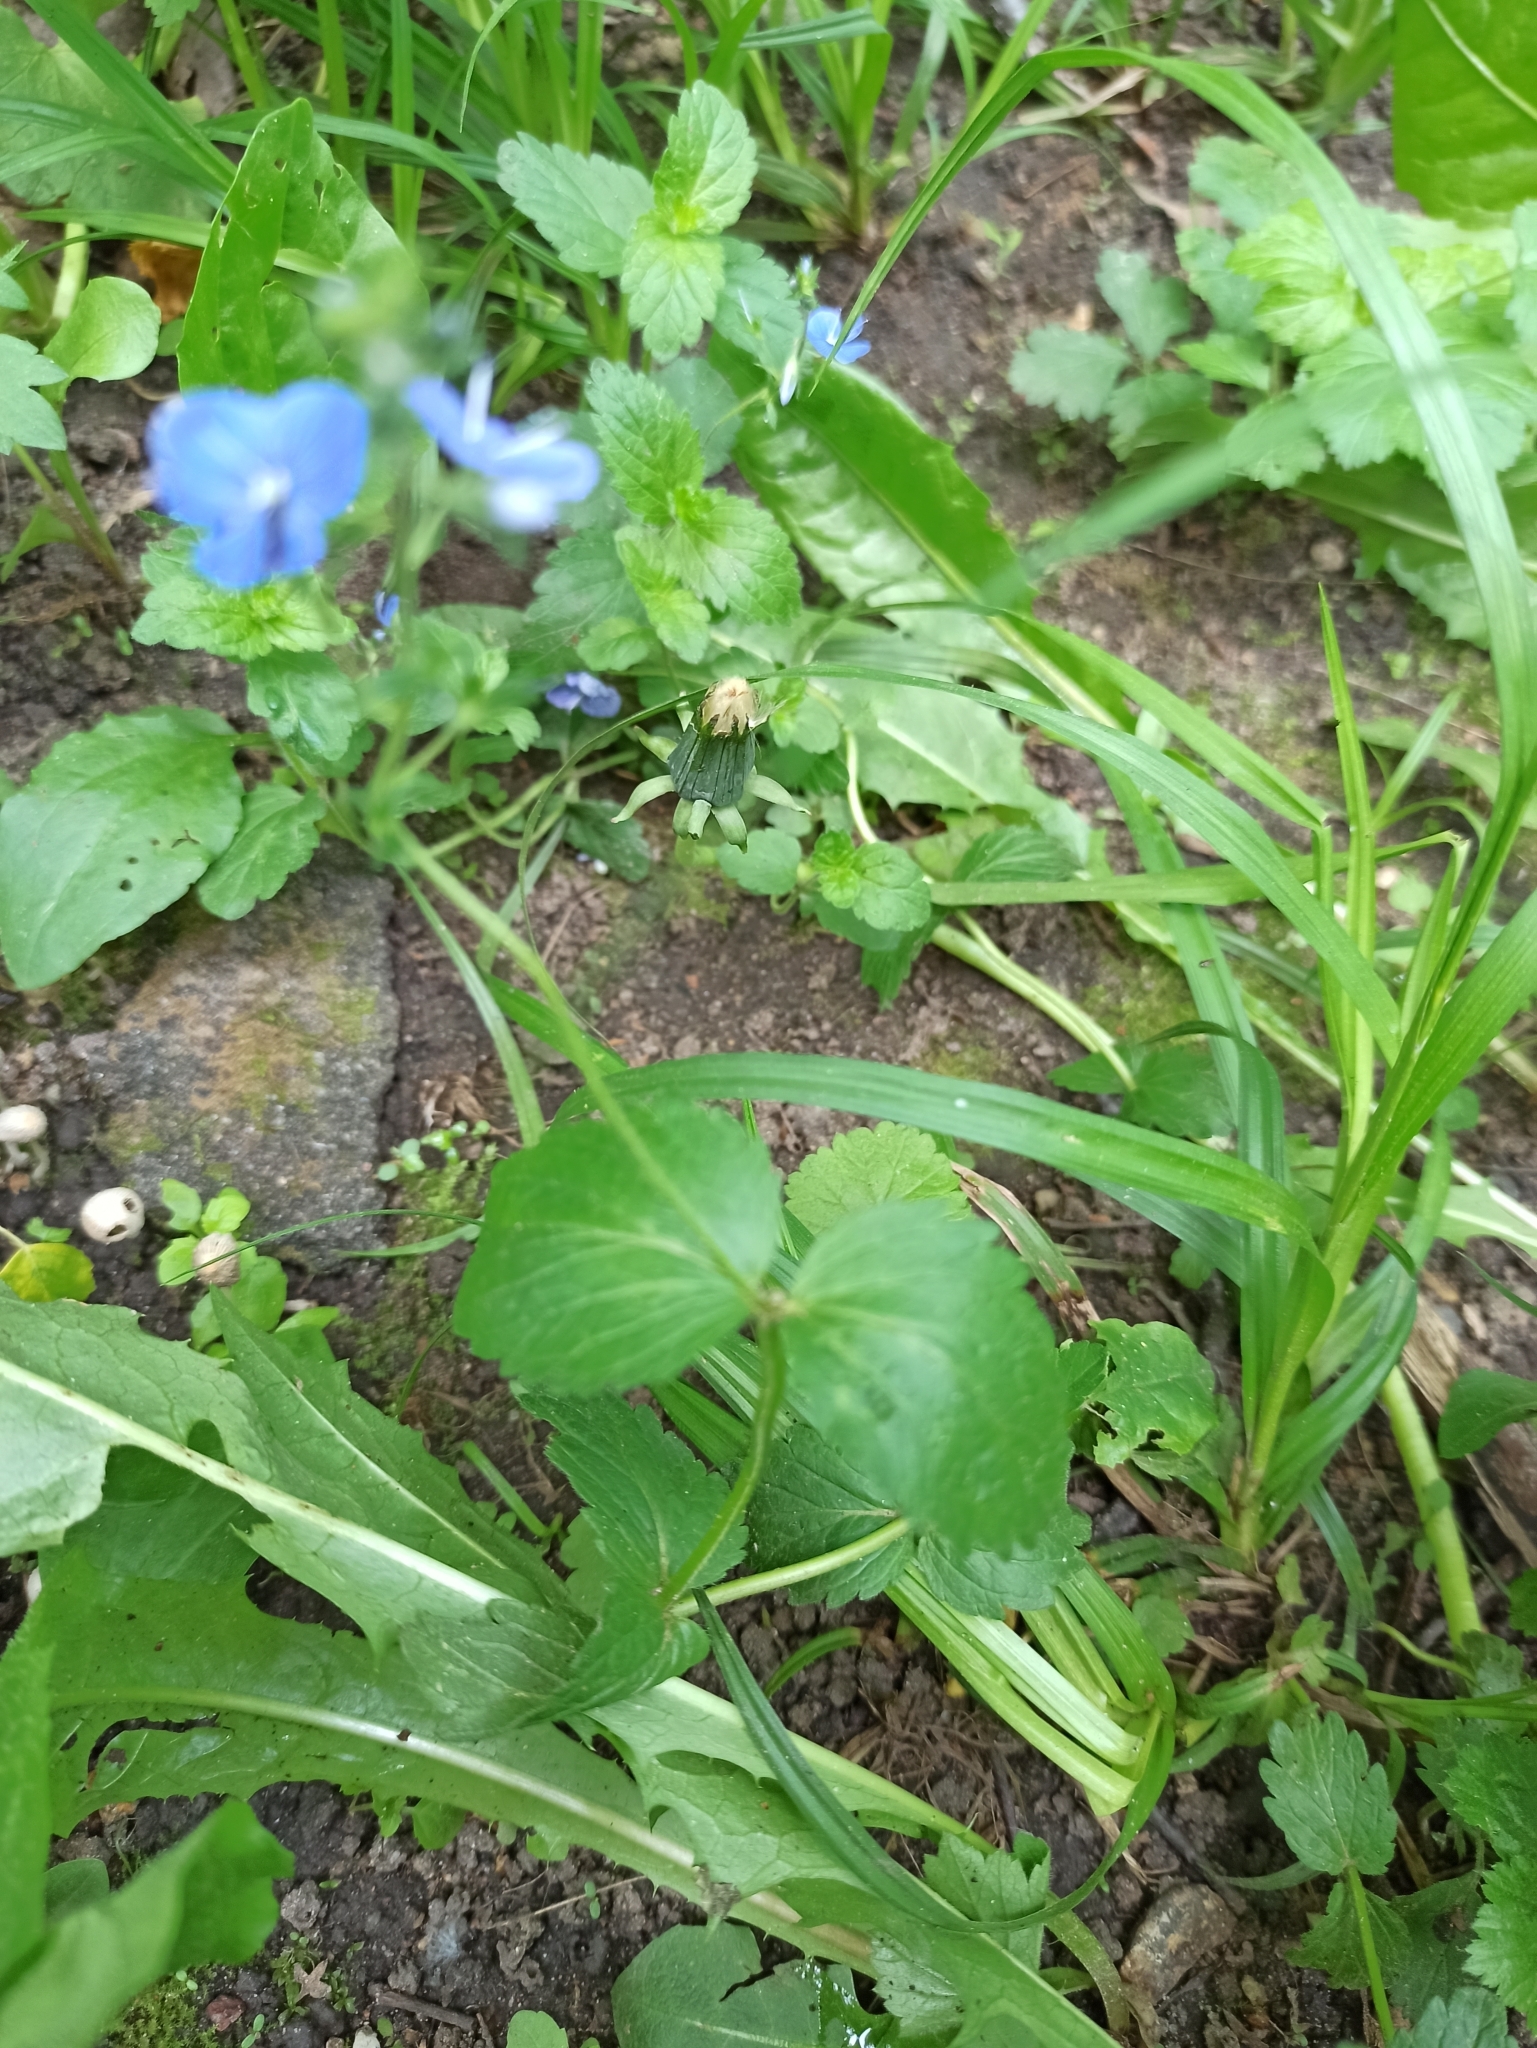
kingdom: Plantae
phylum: Tracheophyta
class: Magnoliopsida
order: Lamiales
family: Plantaginaceae
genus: Veronica
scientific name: Veronica chamaedrys
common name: Germander speedwell
